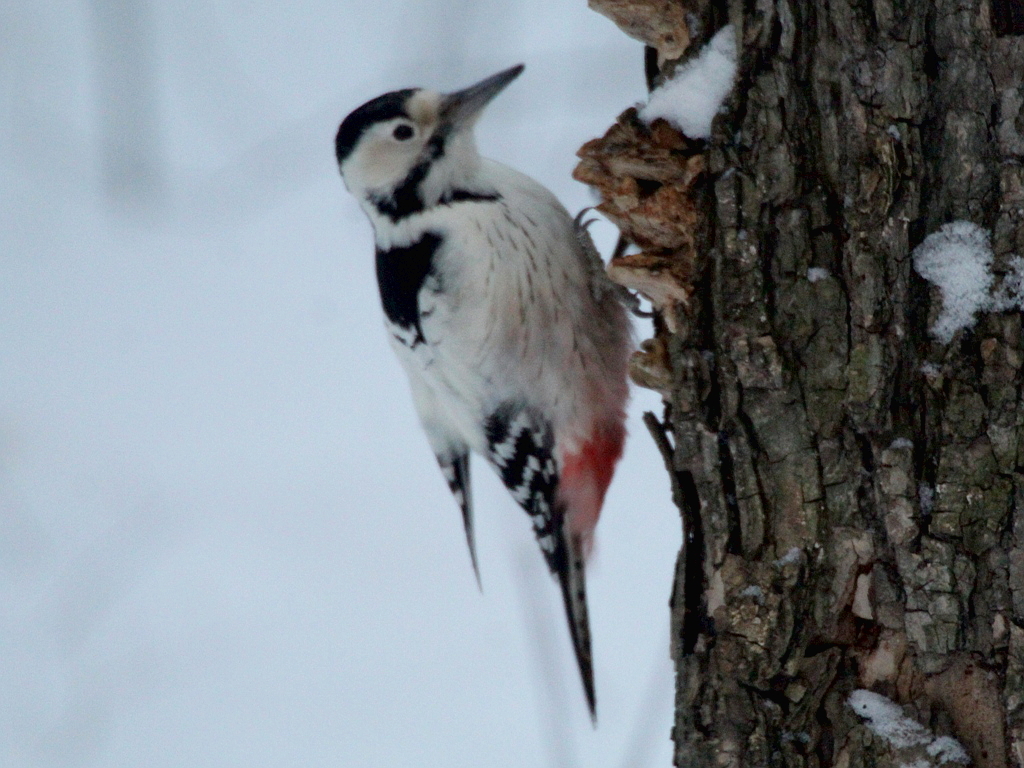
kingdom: Animalia
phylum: Chordata
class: Aves
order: Piciformes
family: Picidae
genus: Dendrocopos
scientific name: Dendrocopos leucotos
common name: White-backed woodpecker
